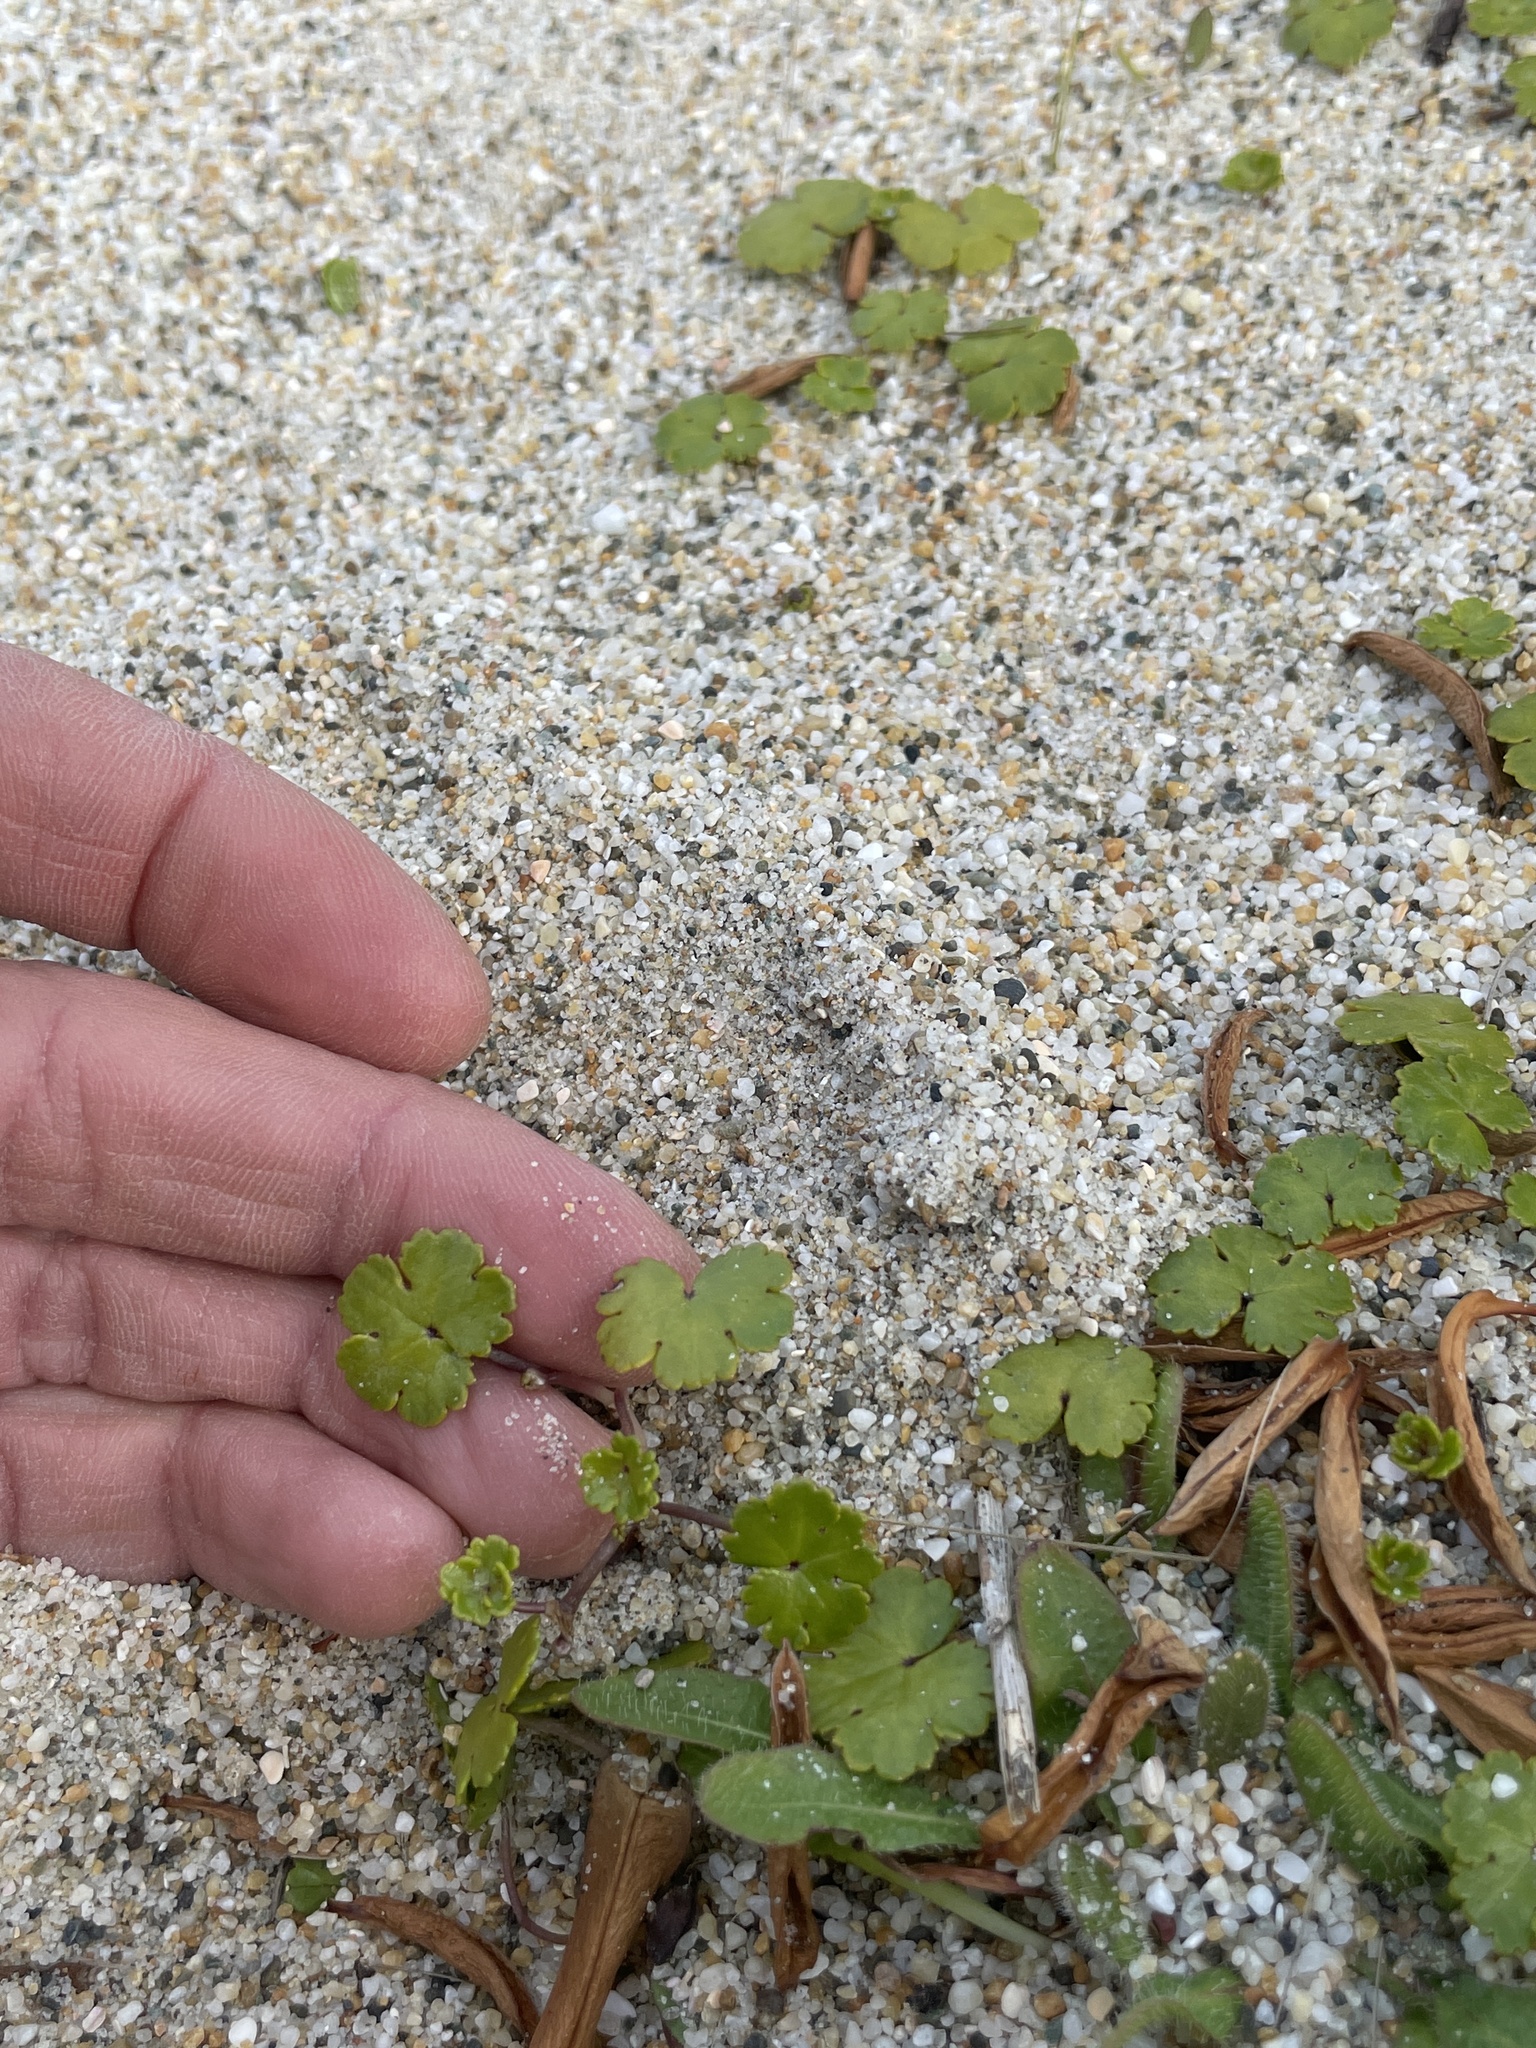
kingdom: Plantae
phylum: Tracheophyta
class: Magnoliopsida
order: Apiales
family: Araliaceae
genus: Hydrocotyle
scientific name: Hydrocotyle novae-zeelandiae
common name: New zealand pennywort
